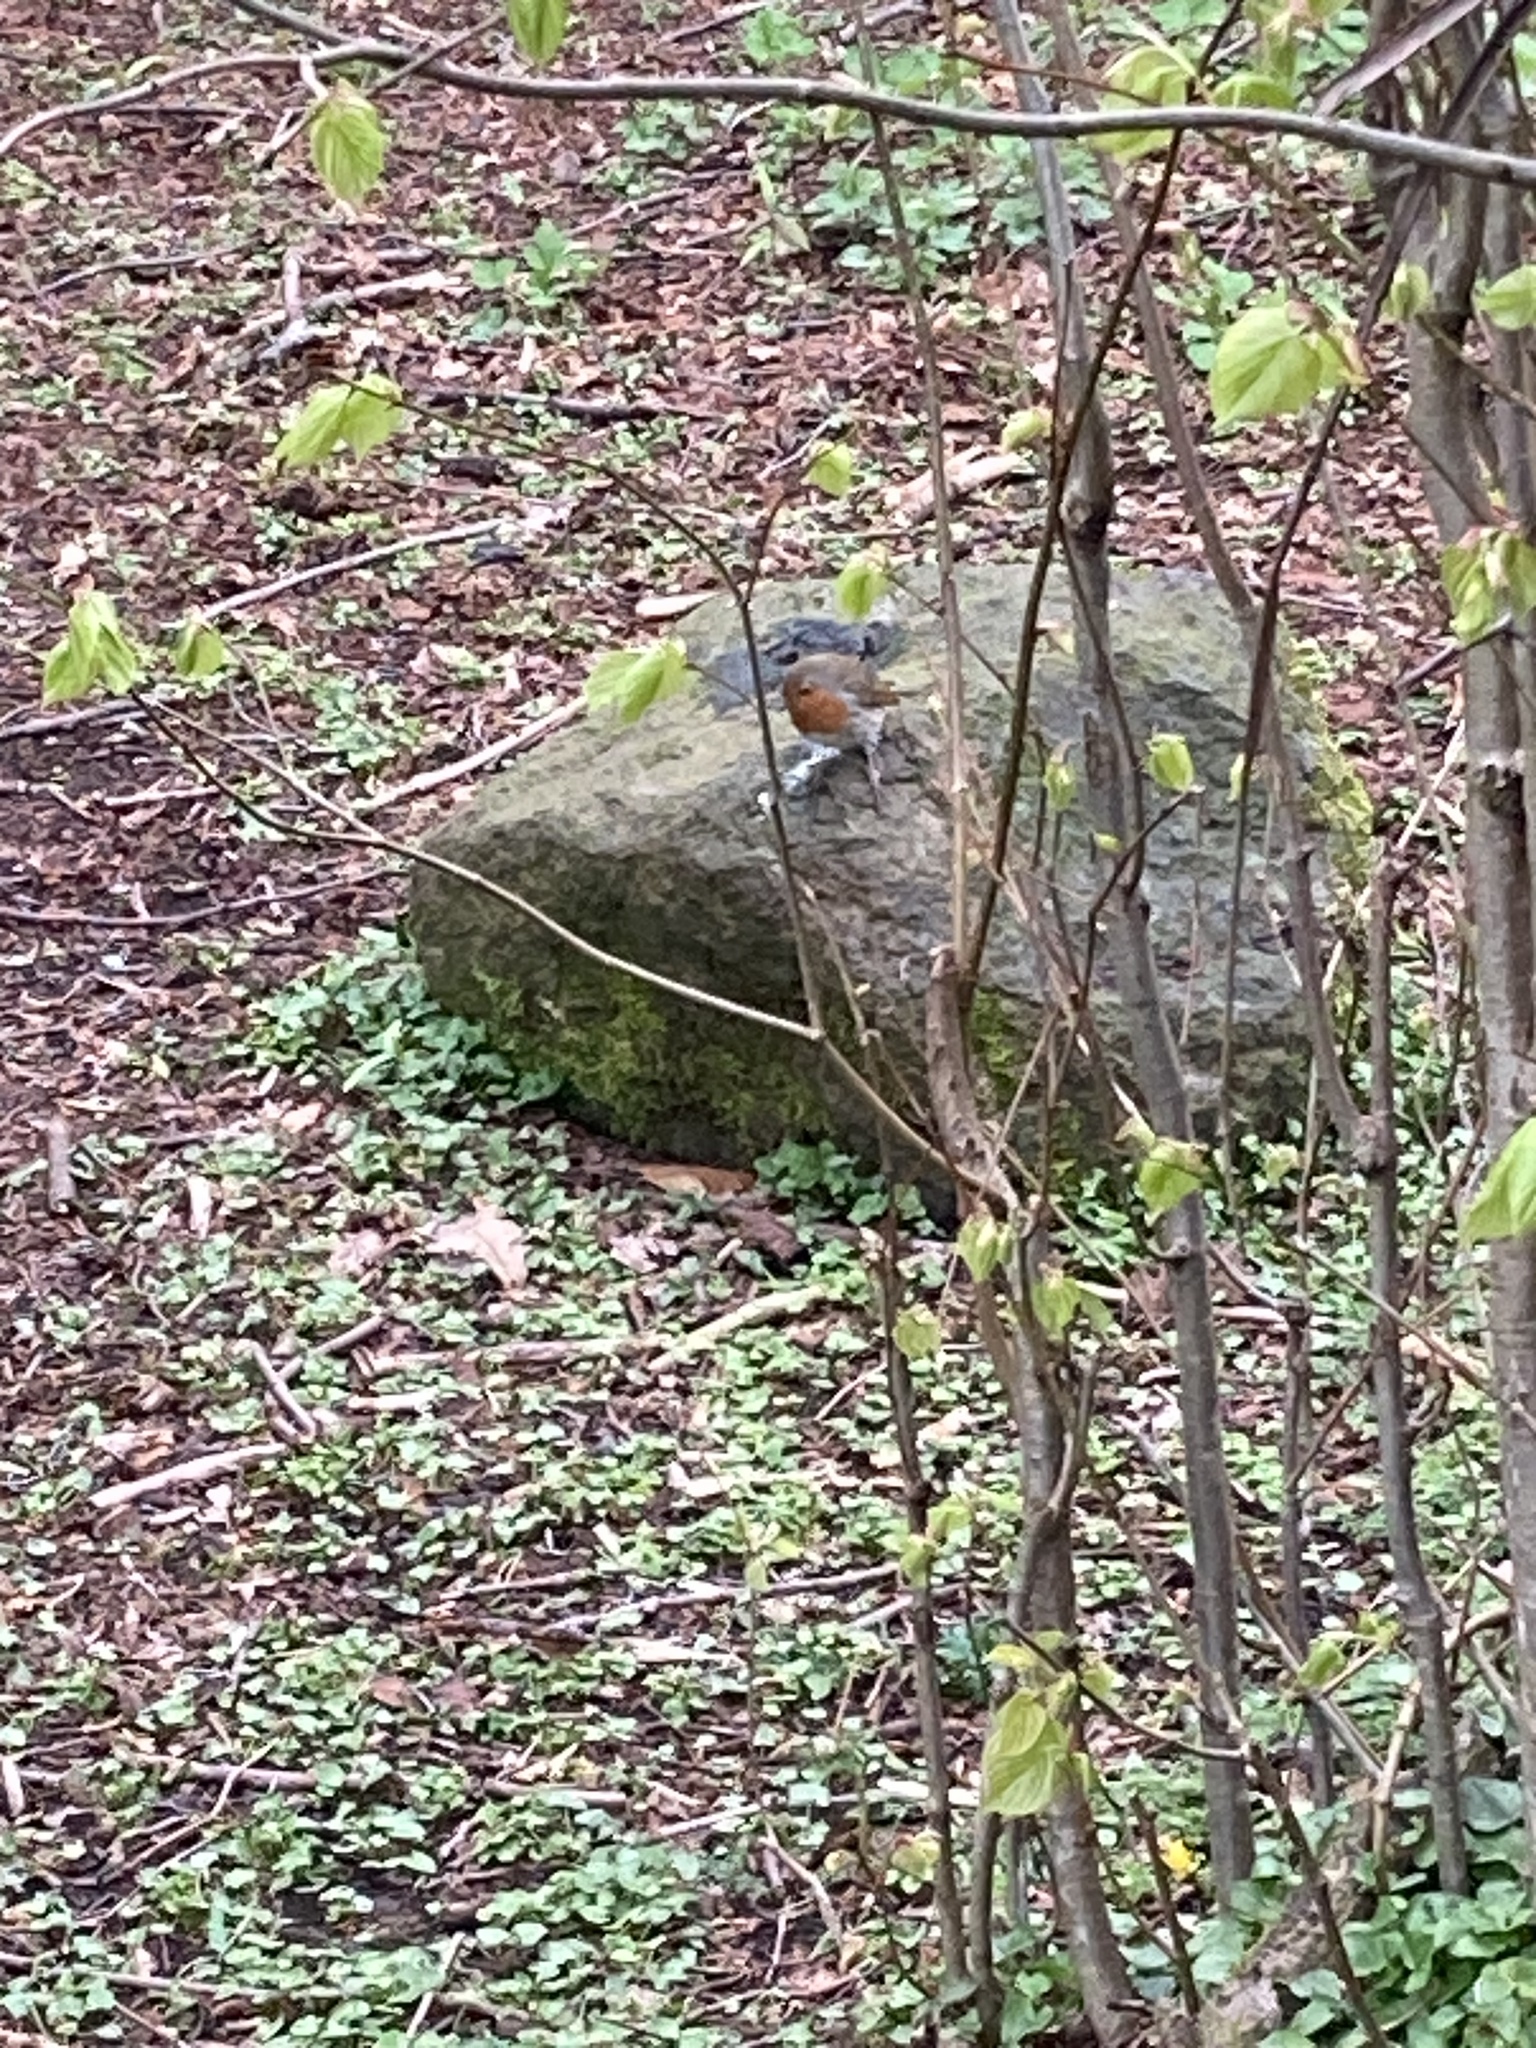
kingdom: Animalia
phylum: Chordata
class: Aves
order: Passeriformes
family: Muscicapidae
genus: Erithacus
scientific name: Erithacus rubecula
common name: European robin
